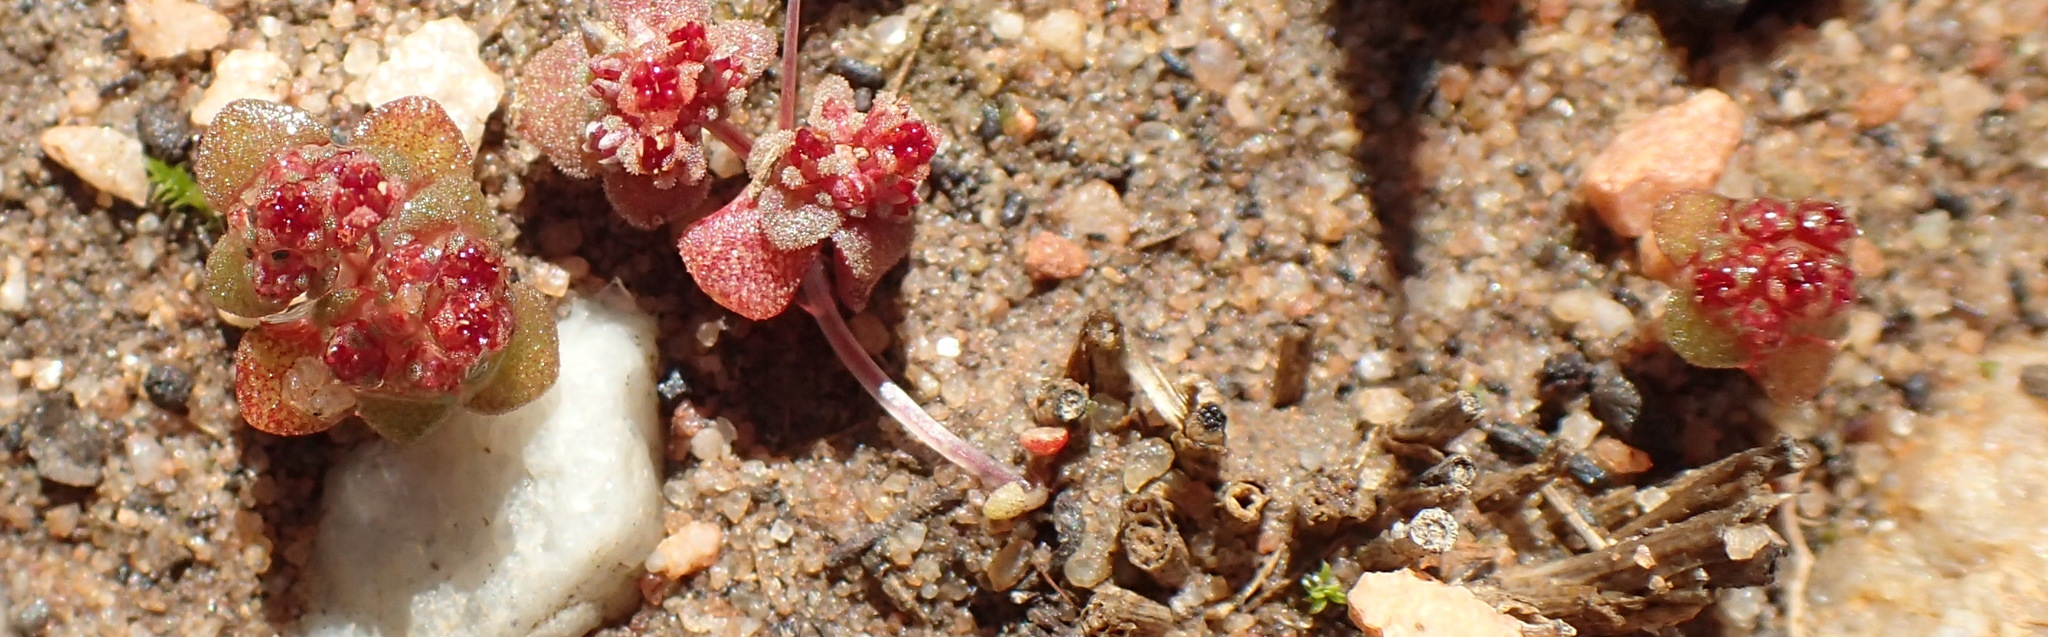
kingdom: Plantae
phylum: Tracheophyta
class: Magnoliopsida
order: Saxifragales
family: Crassulaceae
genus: Crassula
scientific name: Crassula umbellata
